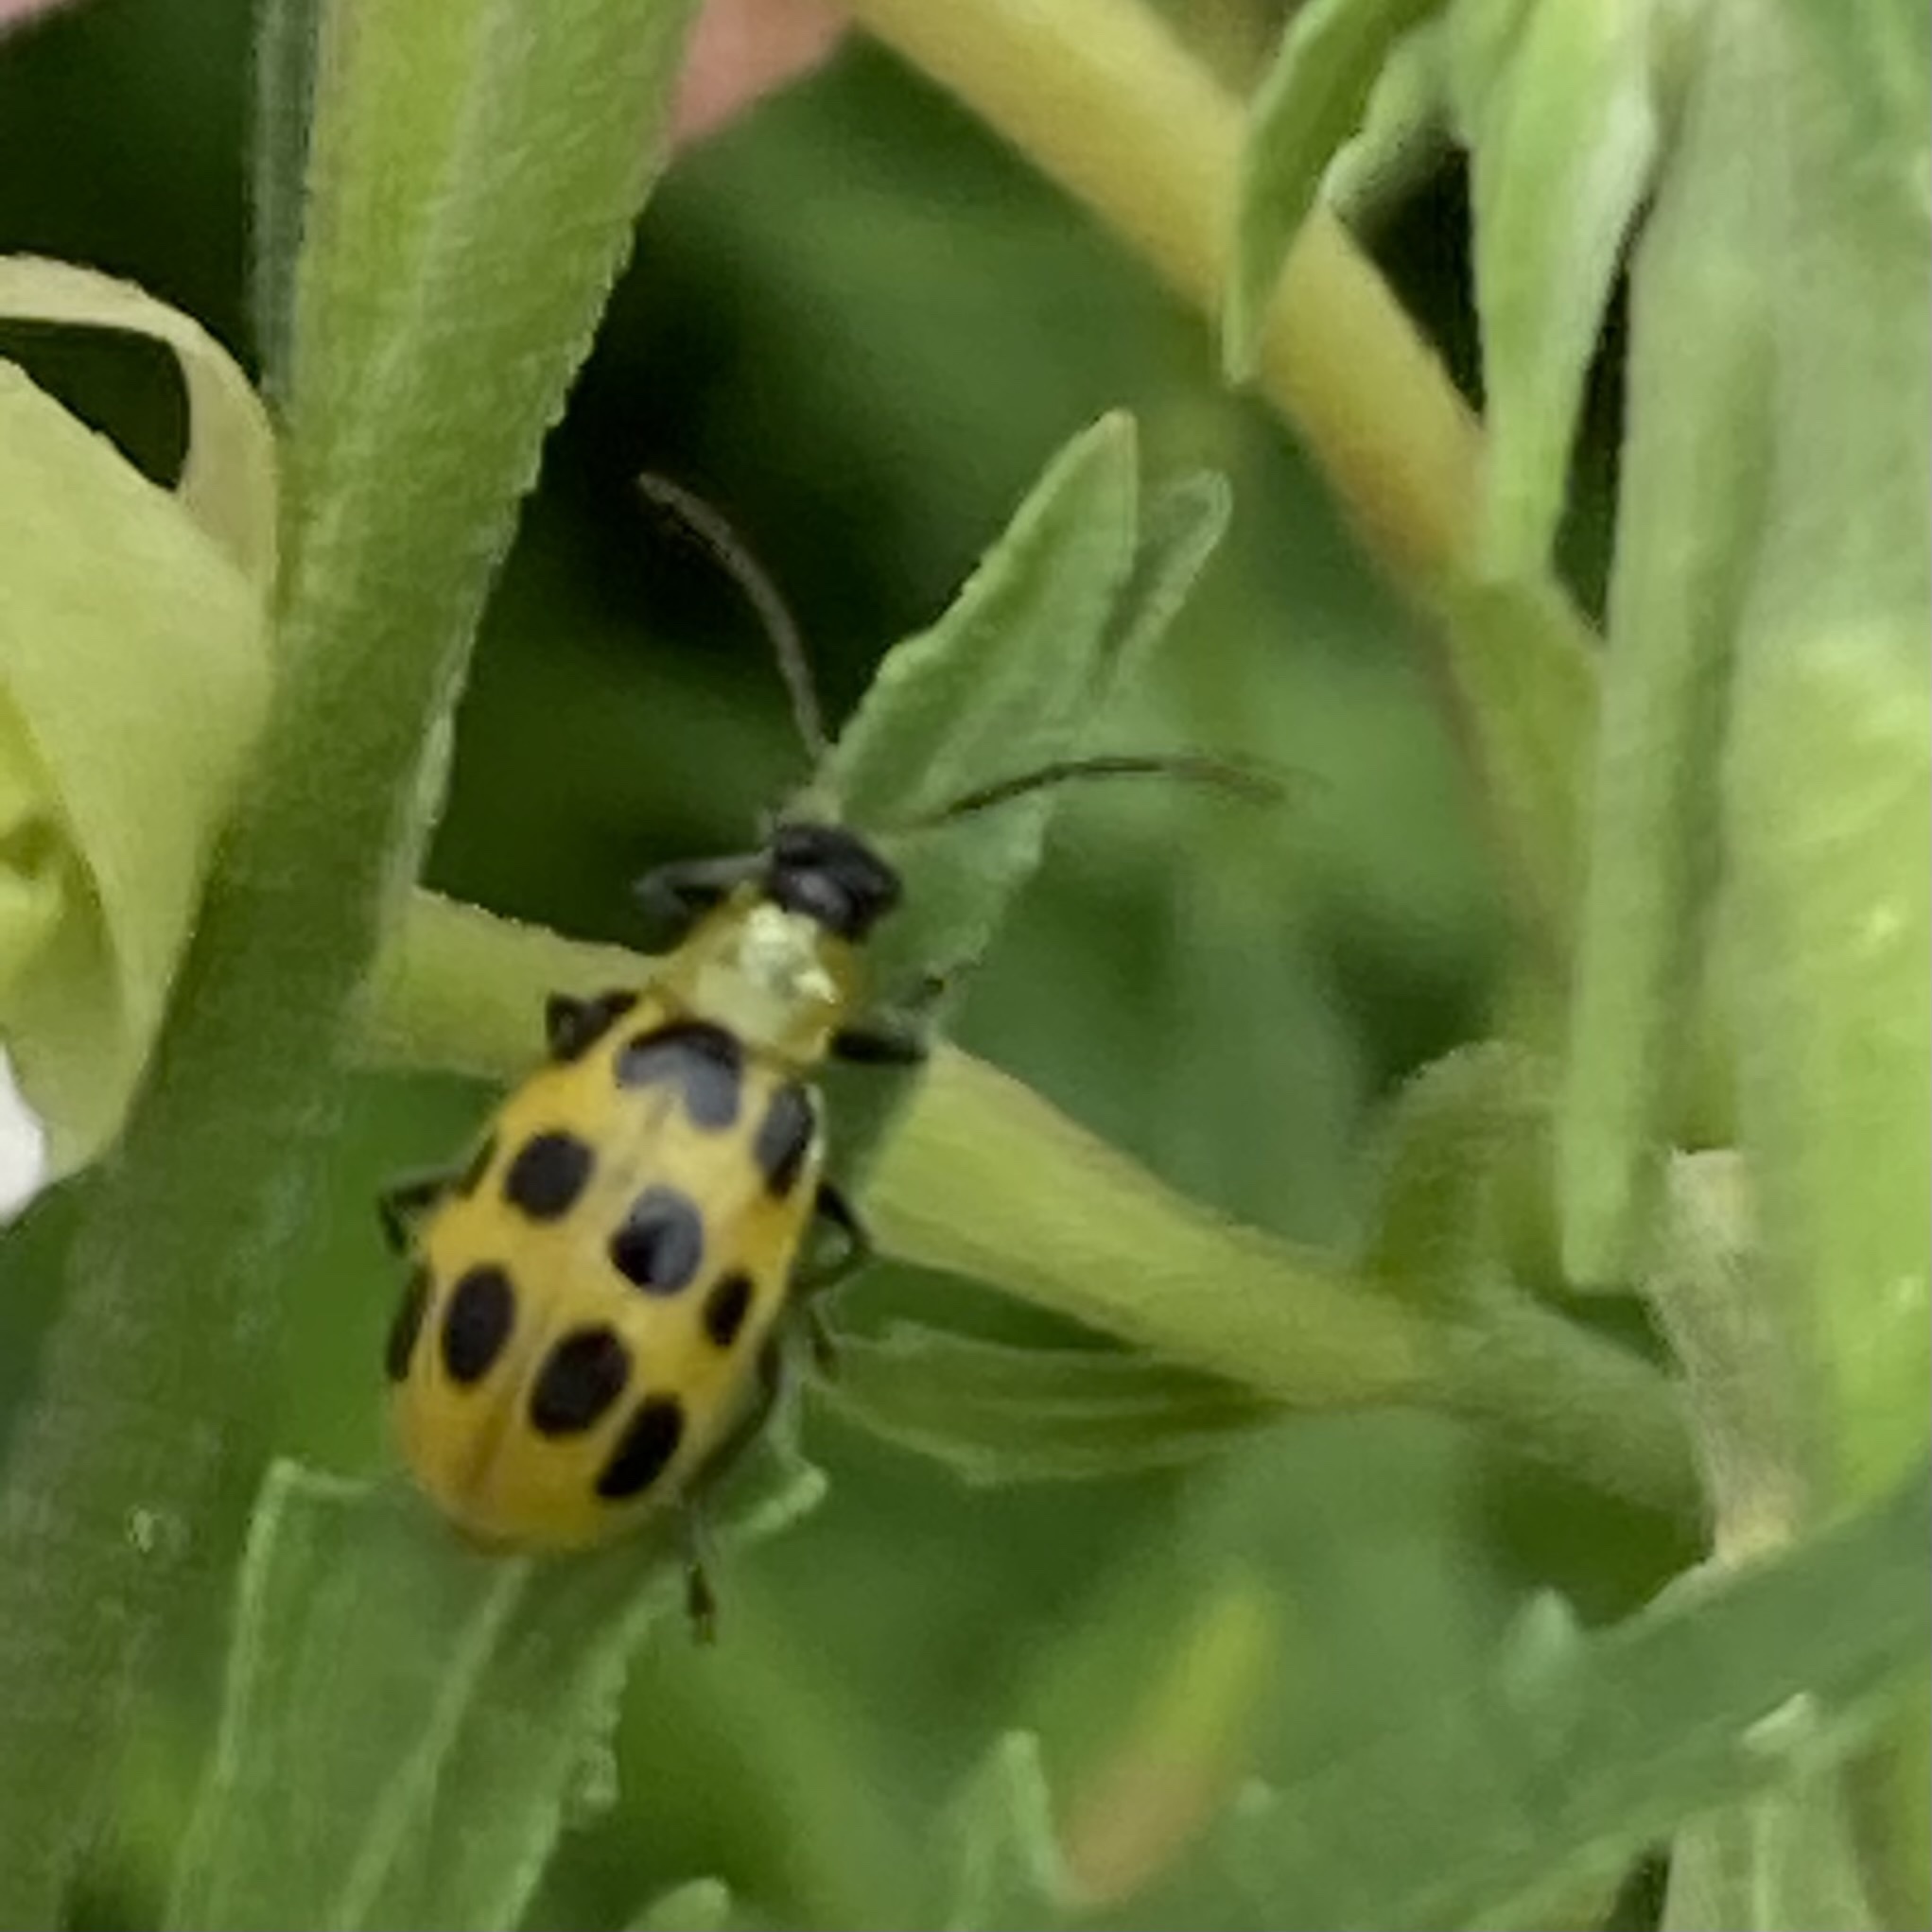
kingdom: Animalia
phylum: Arthropoda
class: Insecta
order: Coleoptera
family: Chrysomelidae
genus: Diabrotica
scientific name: Diabrotica undecimpunctata
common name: Spotted cucumber beetle
